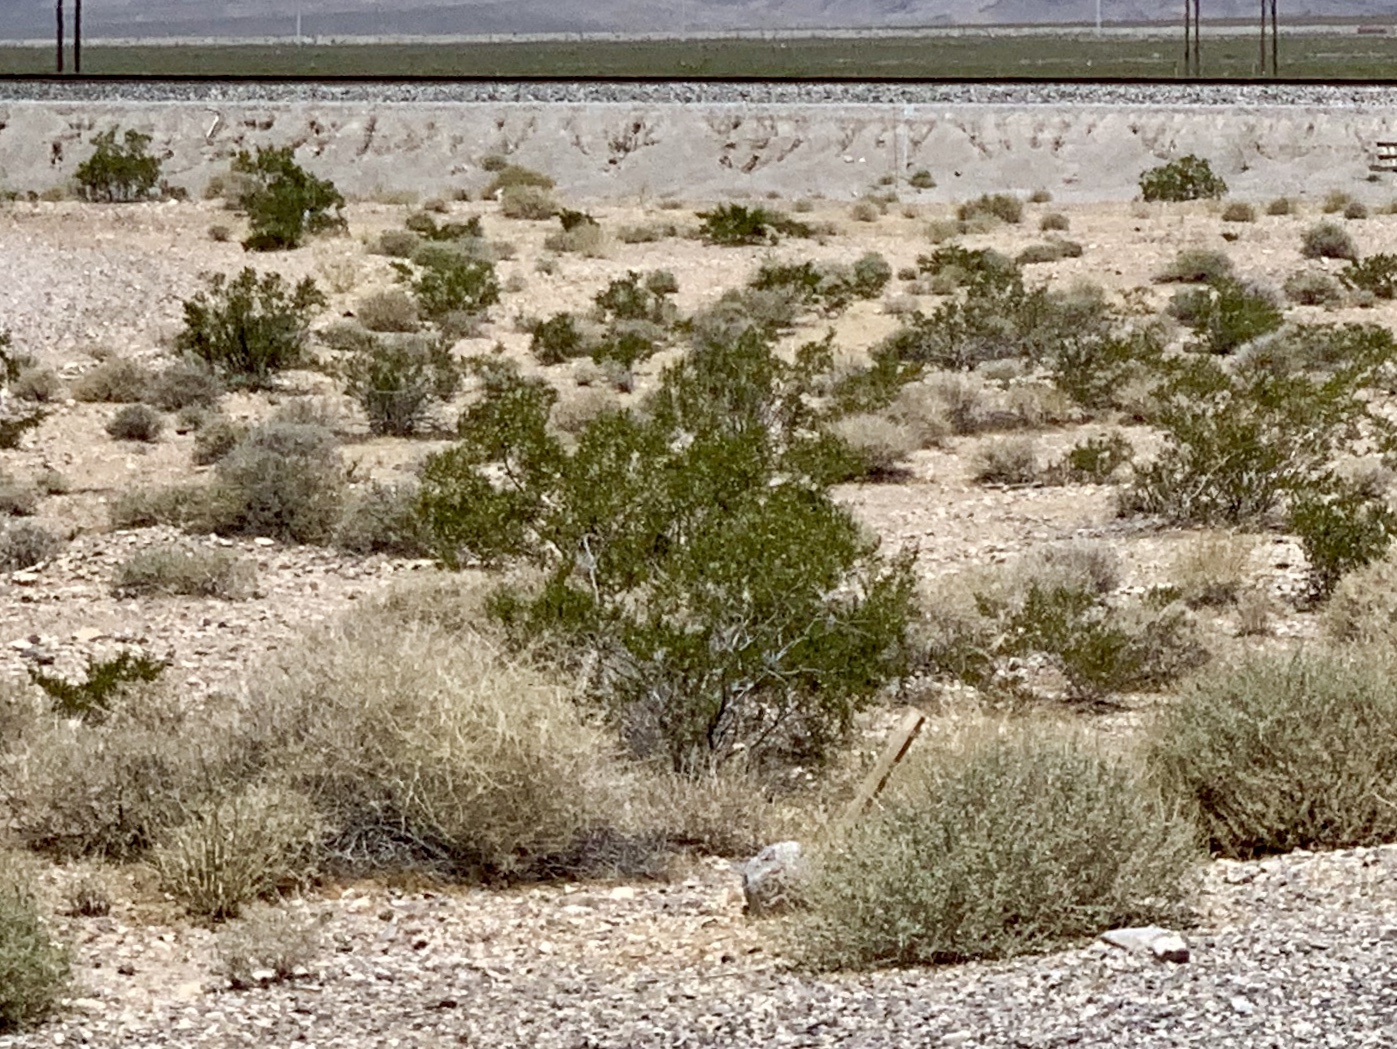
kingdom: Plantae
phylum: Tracheophyta
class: Magnoliopsida
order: Zygophyllales
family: Zygophyllaceae
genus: Larrea
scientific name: Larrea tridentata
